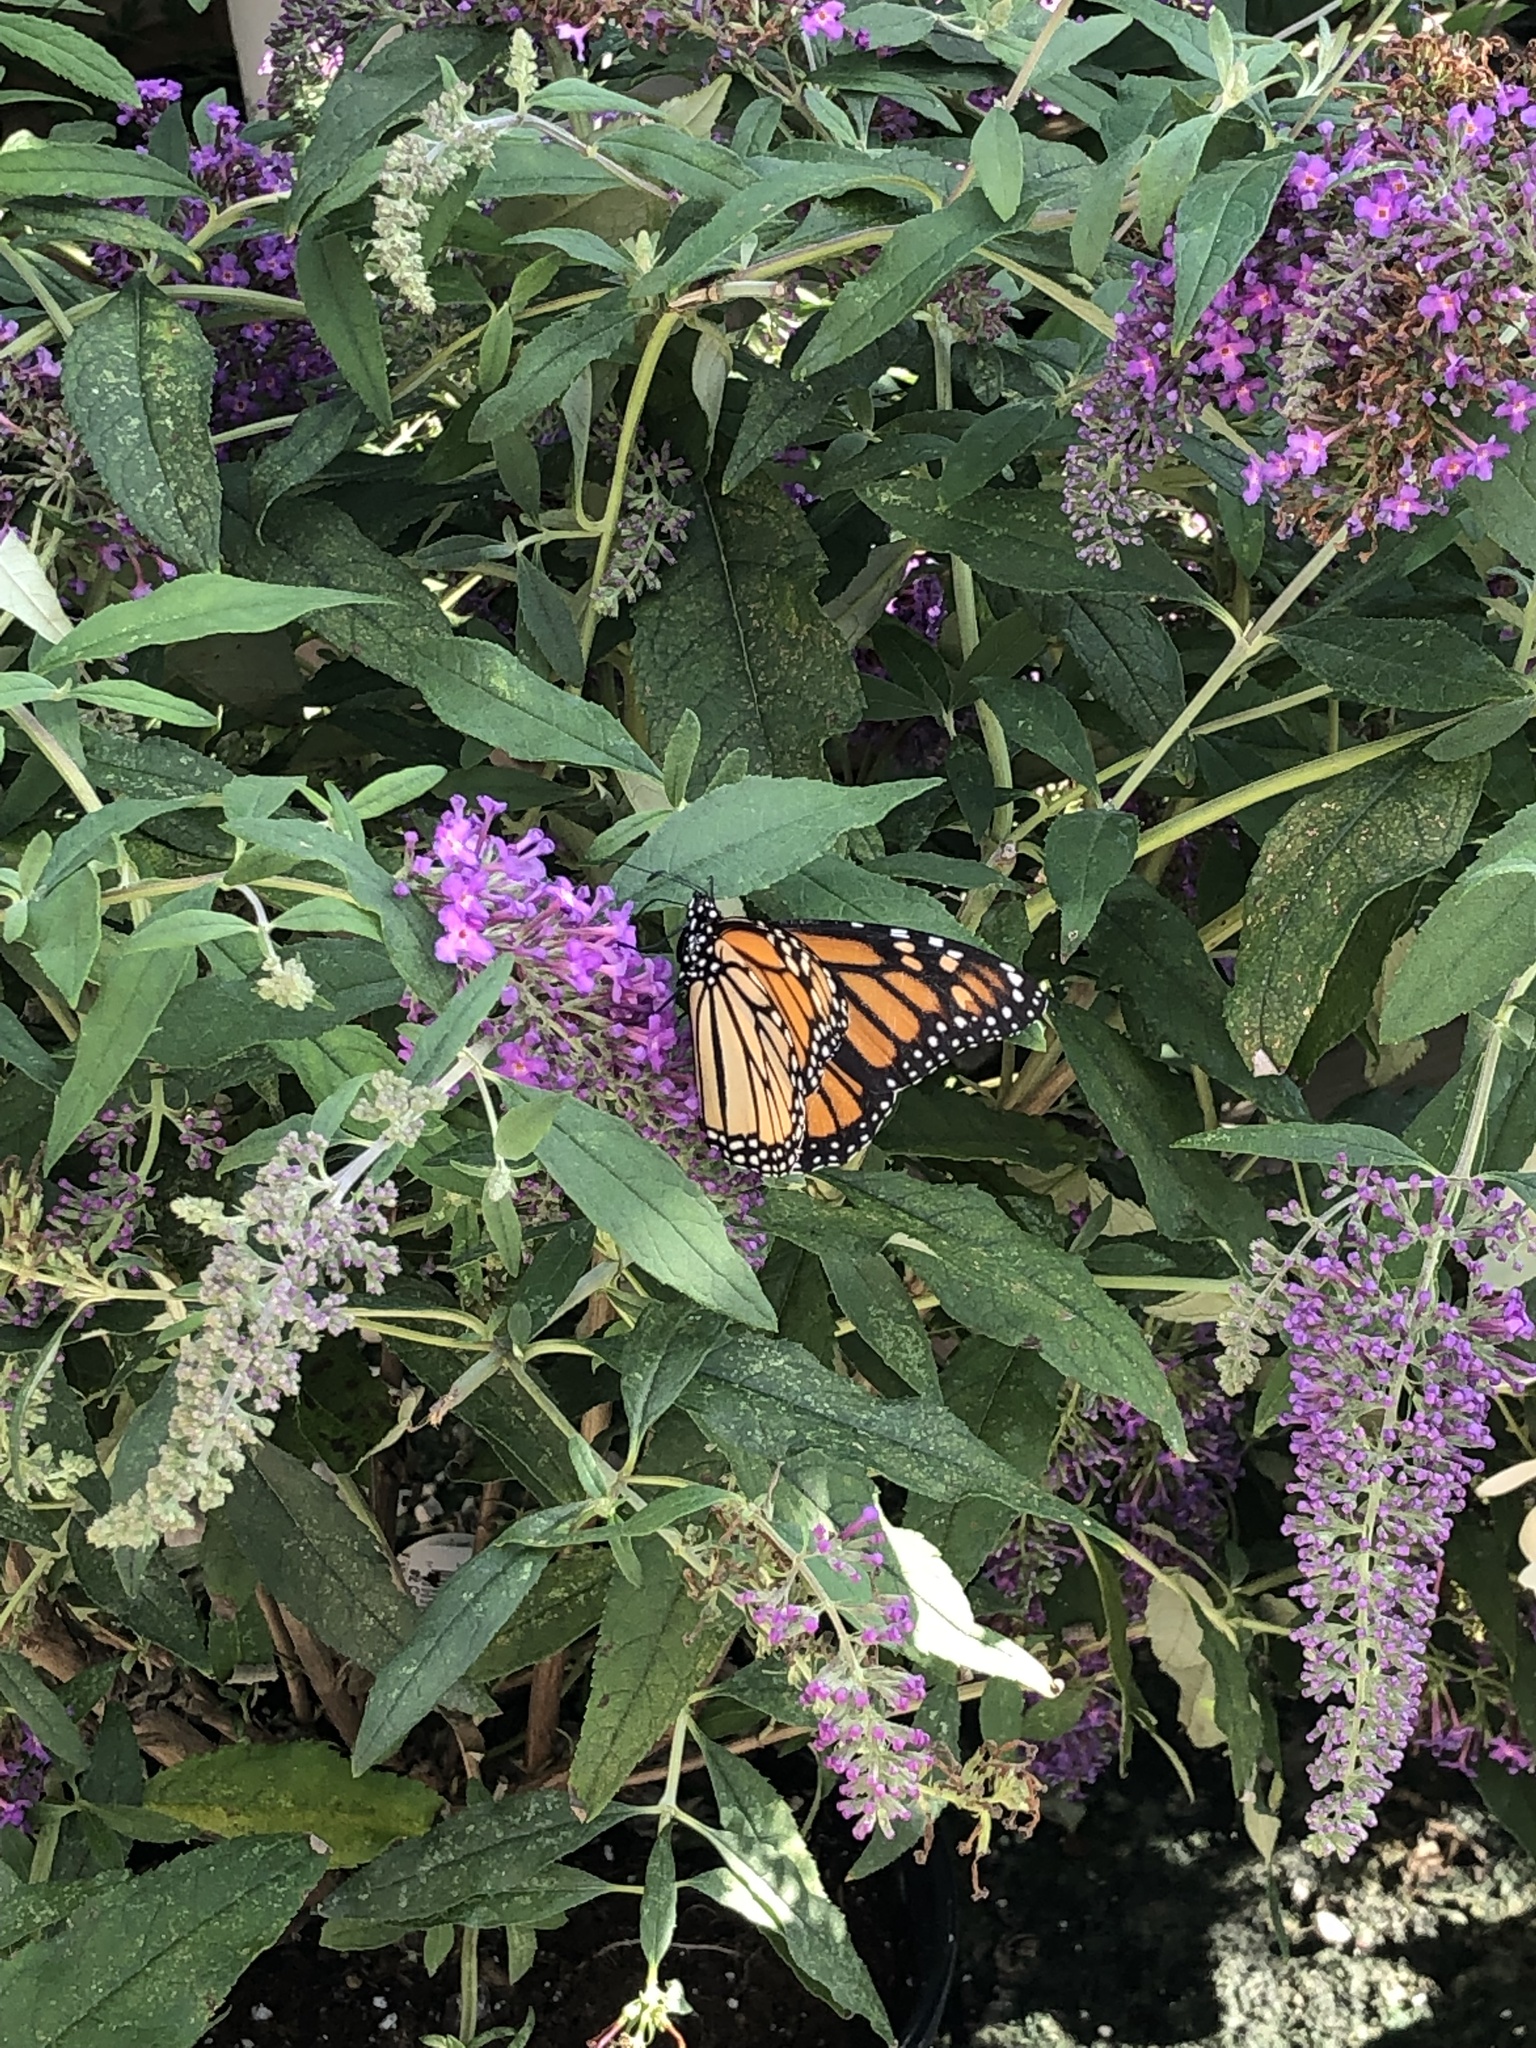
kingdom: Animalia
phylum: Arthropoda
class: Insecta
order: Lepidoptera
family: Nymphalidae
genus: Danaus
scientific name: Danaus plexippus
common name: Monarch
